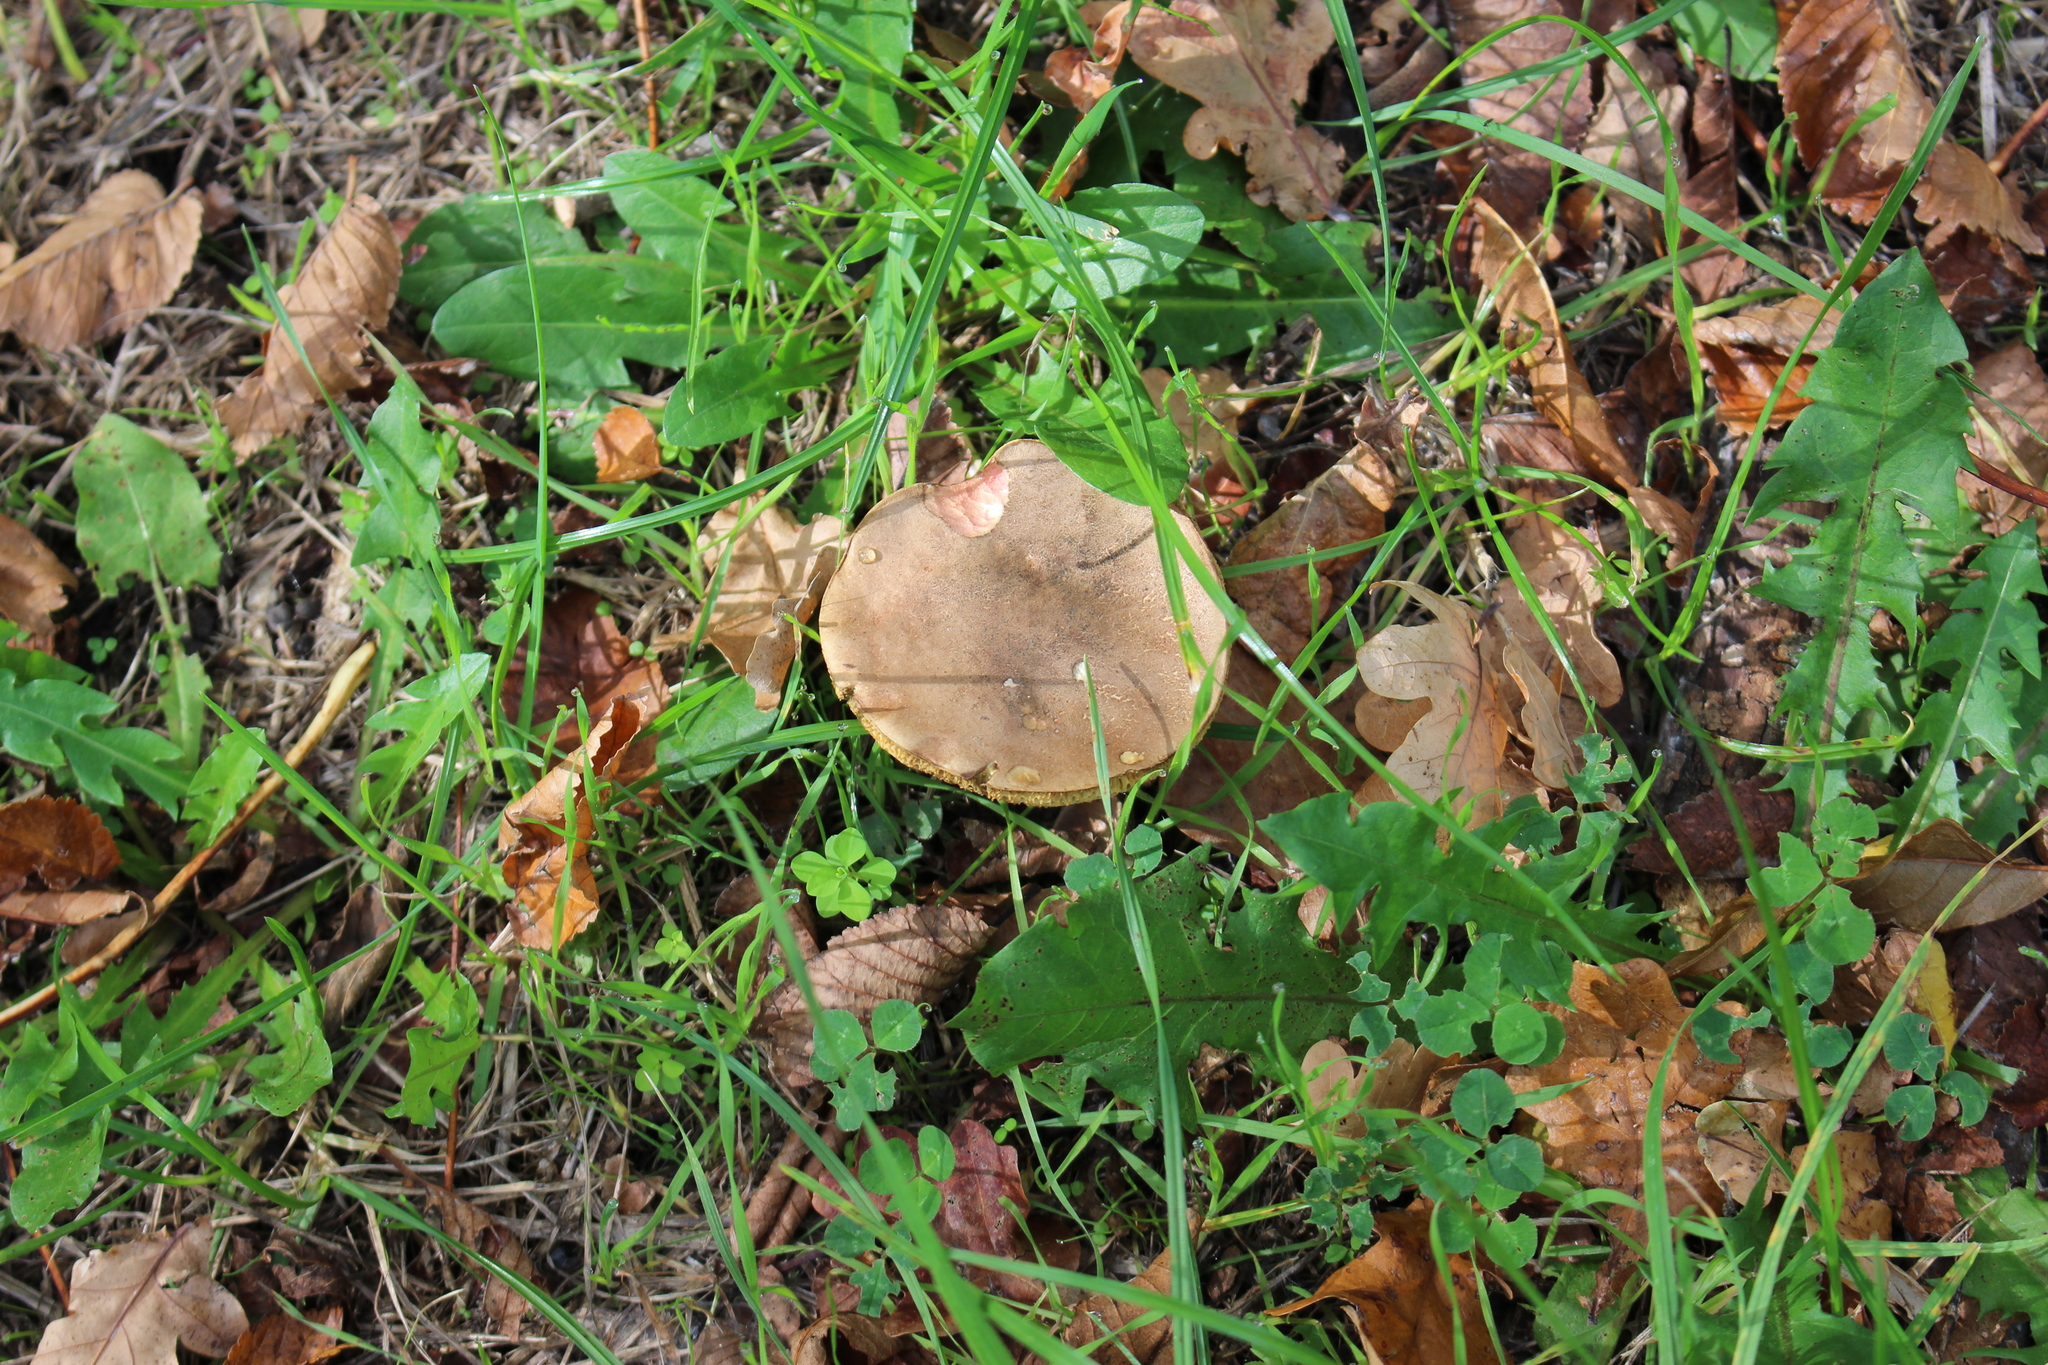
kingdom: Fungi
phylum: Basidiomycota
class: Agaricomycetes
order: Boletales
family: Boletaceae
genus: Xerocomellus
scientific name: Xerocomellus cisalpinus
